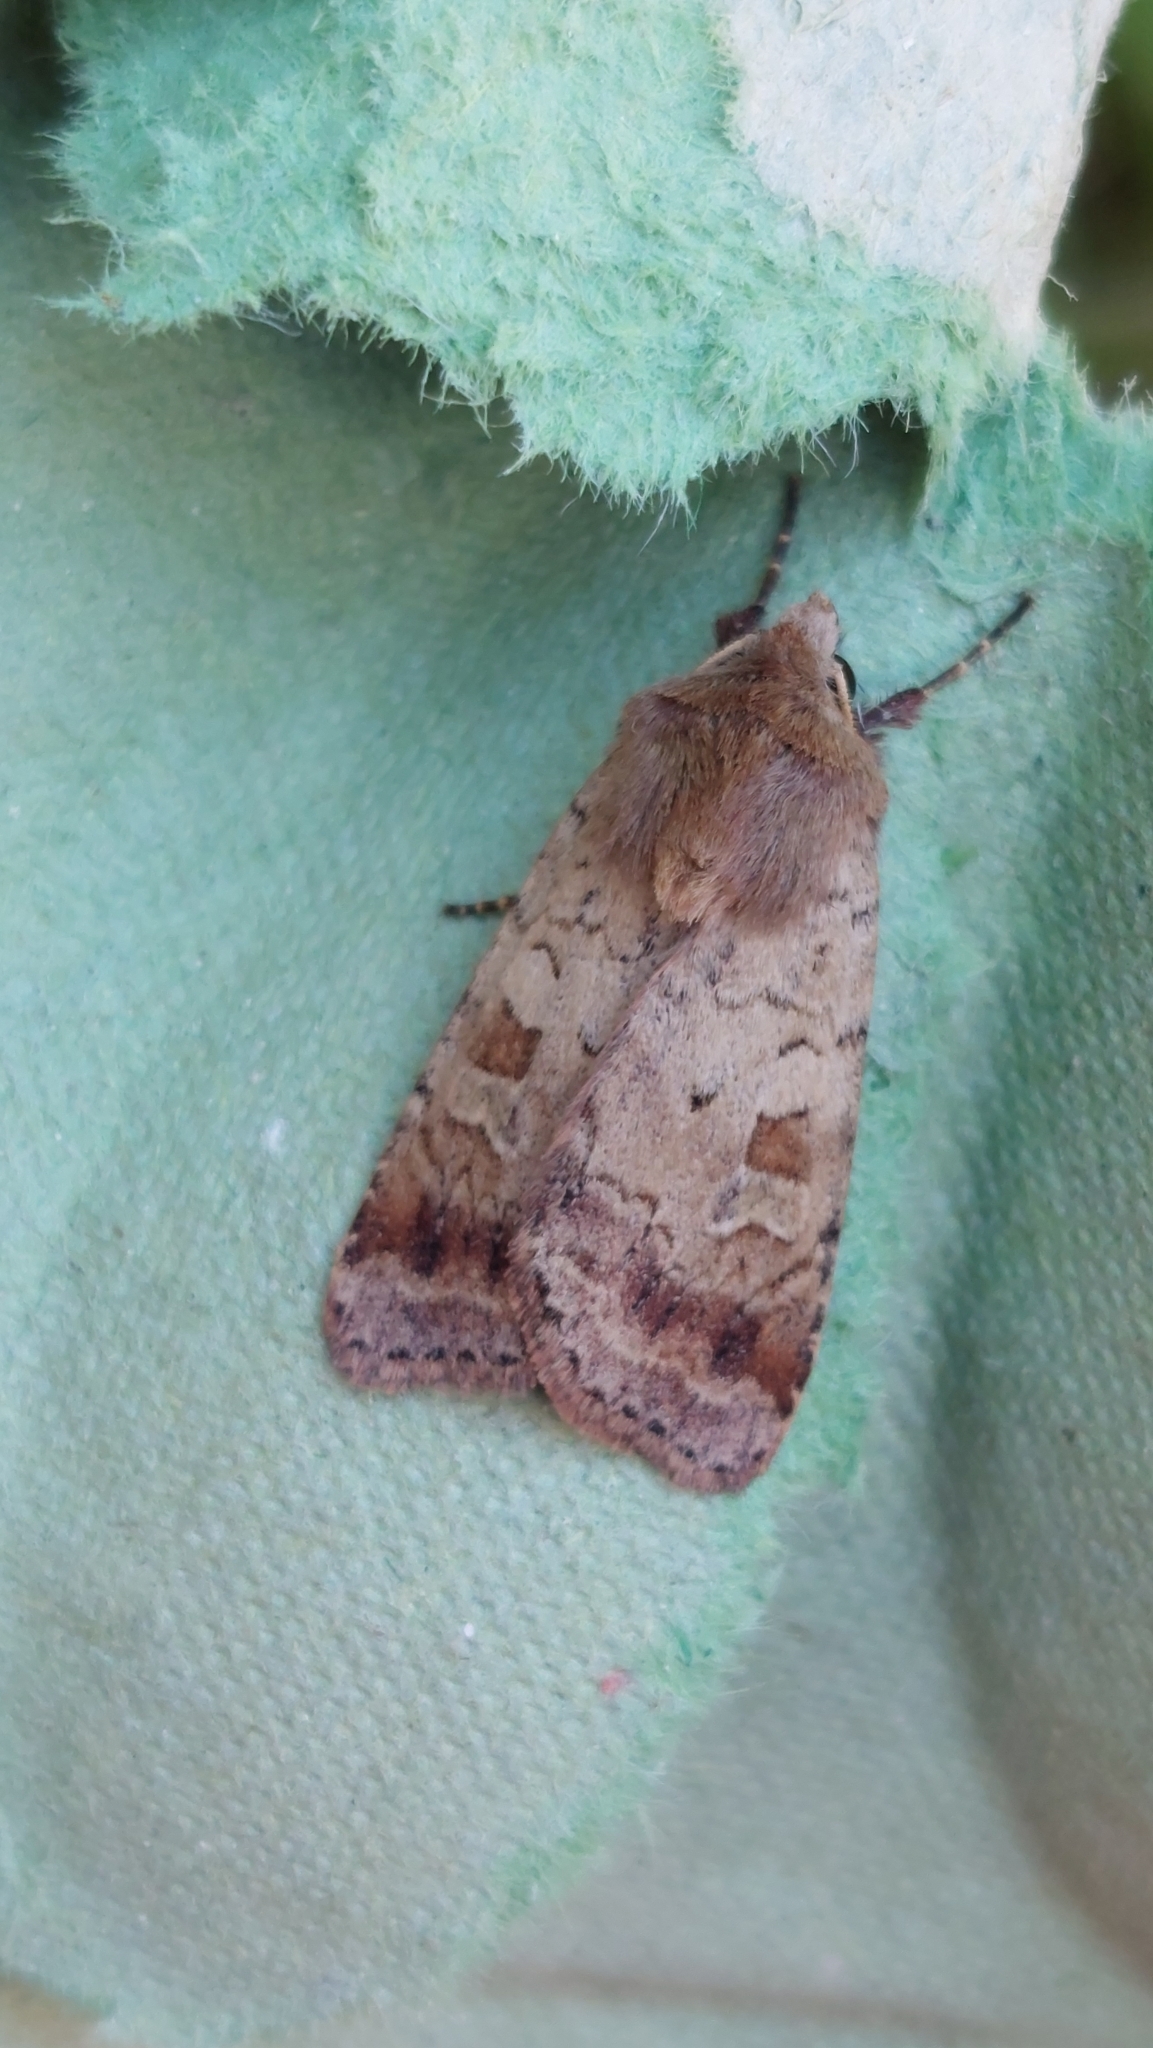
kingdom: Animalia
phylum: Arthropoda
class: Insecta
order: Lepidoptera
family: Noctuidae
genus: Diarsia
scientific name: Diarsia mendica
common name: Ingrailed clay
